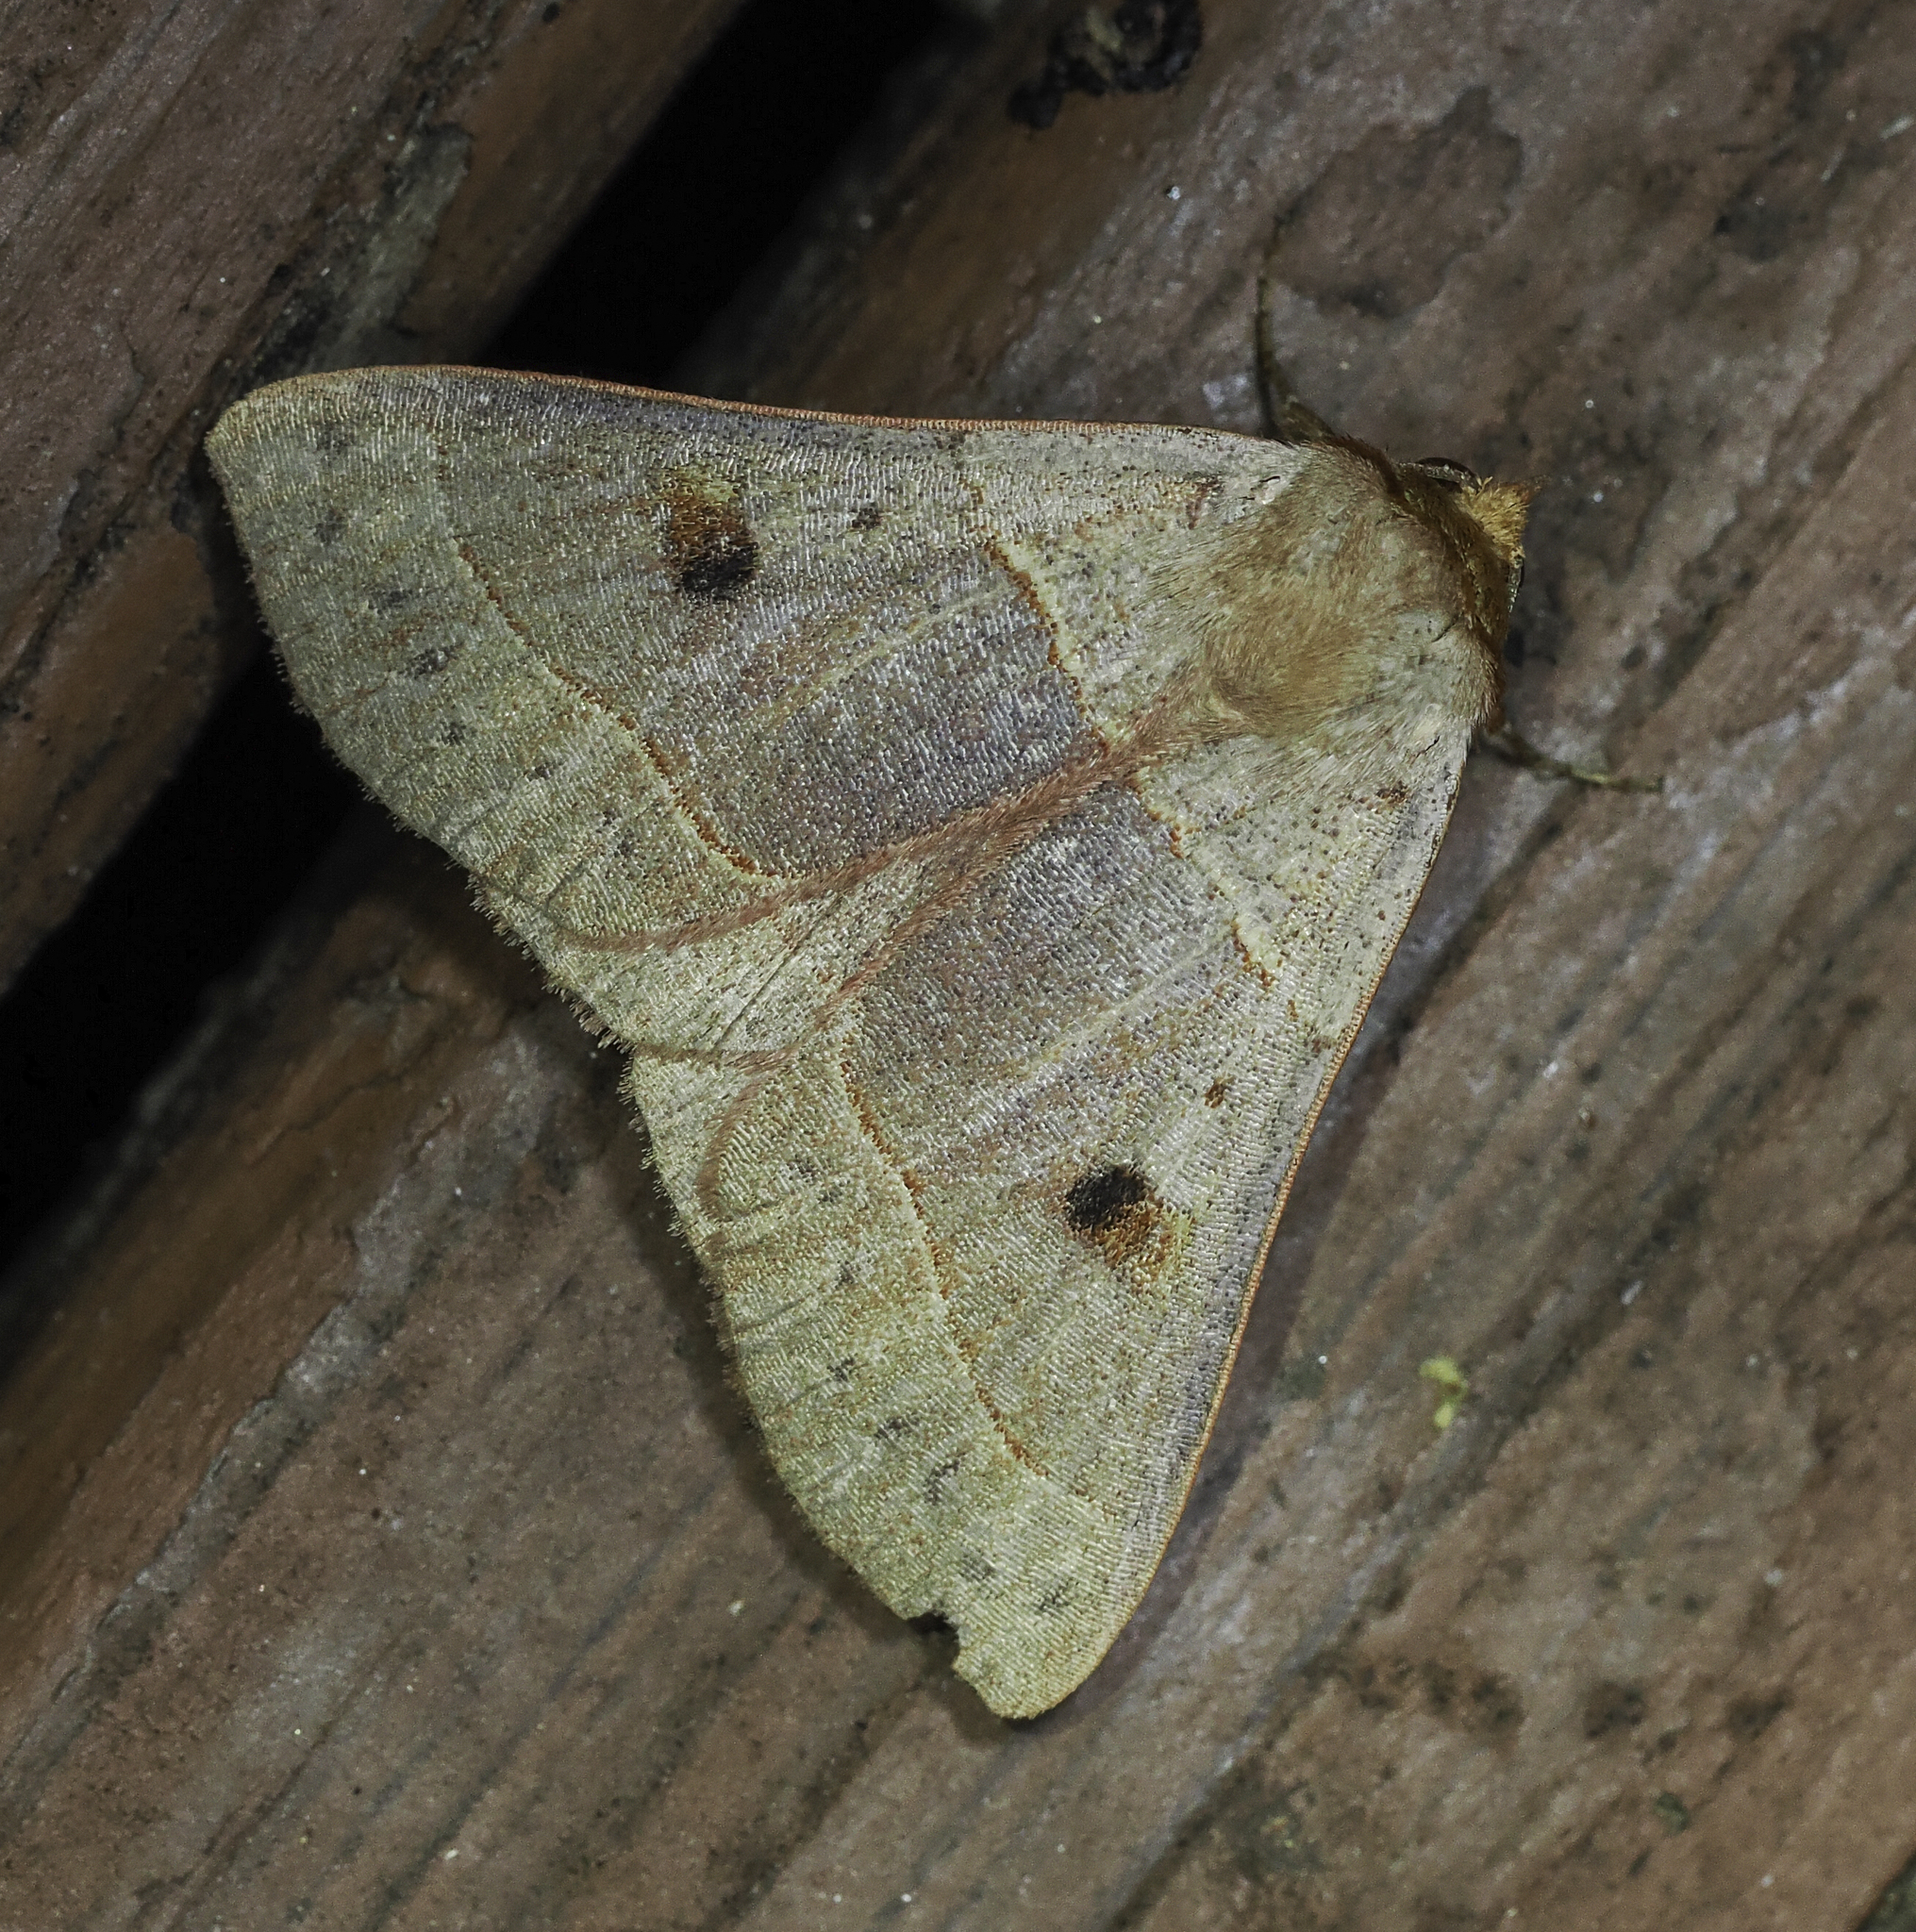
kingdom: Animalia
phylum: Arthropoda
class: Insecta
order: Lepidoptera
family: Erebidae
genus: Panopoda
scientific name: Panopoda rufimargo
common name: Red-lined panopoda moth
